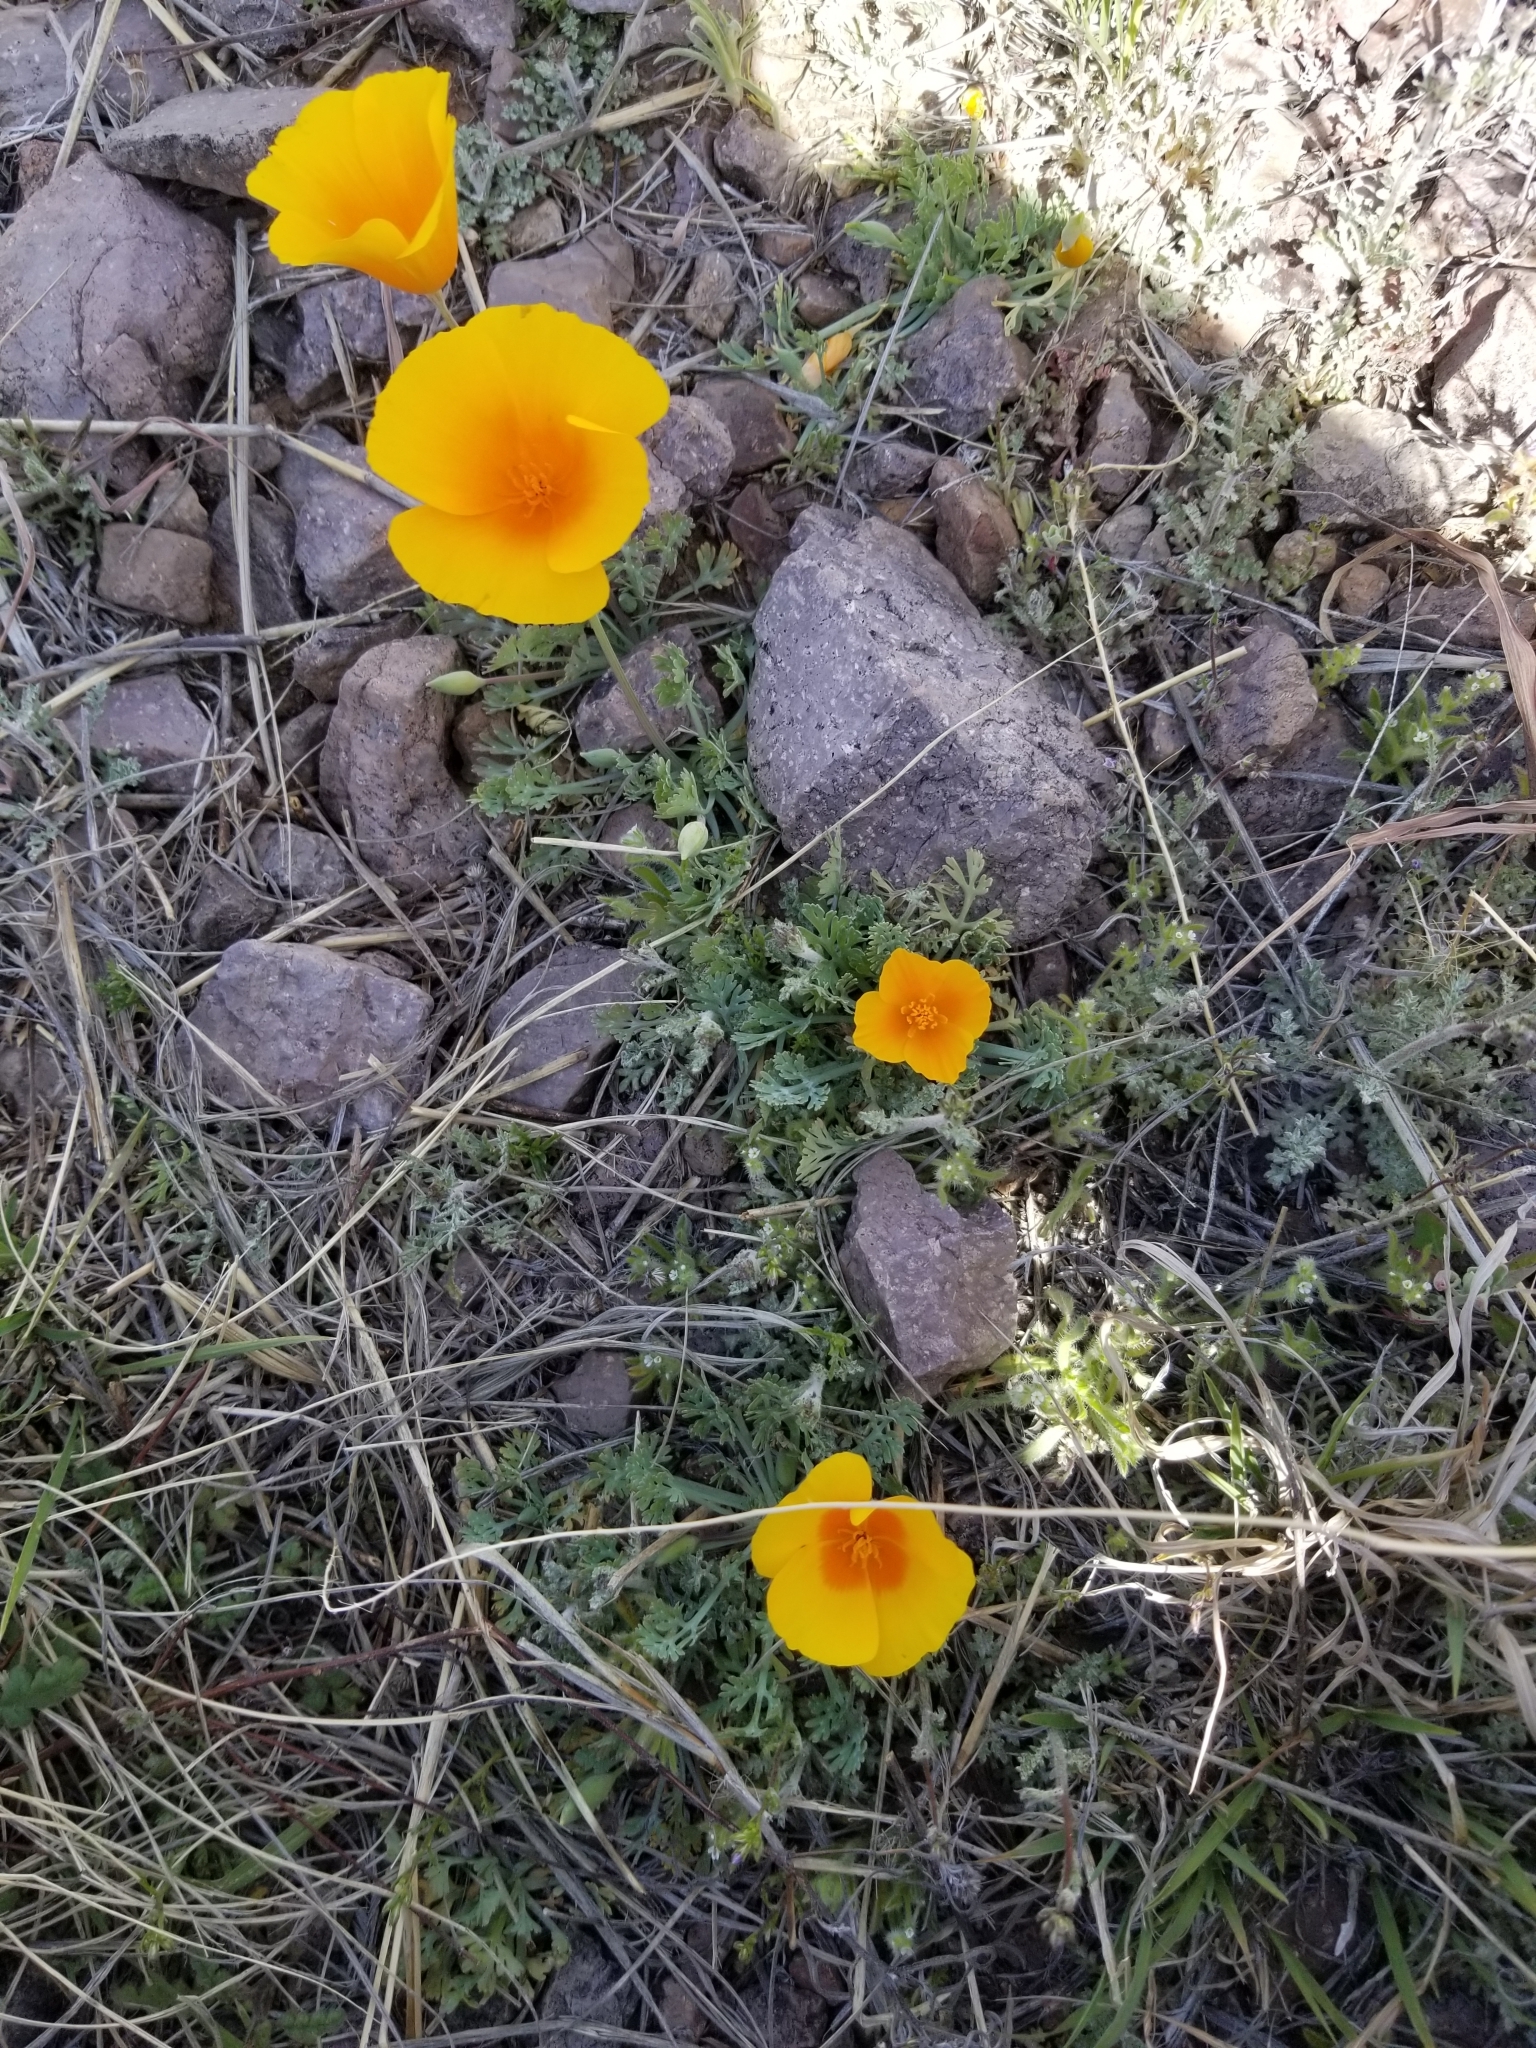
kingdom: Plantae
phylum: Tracheophyta
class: Magnoliopsida
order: Ranunculales
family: Papaveraceae
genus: Eschscholzia
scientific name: Eschscholzia californica
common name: California poppy
